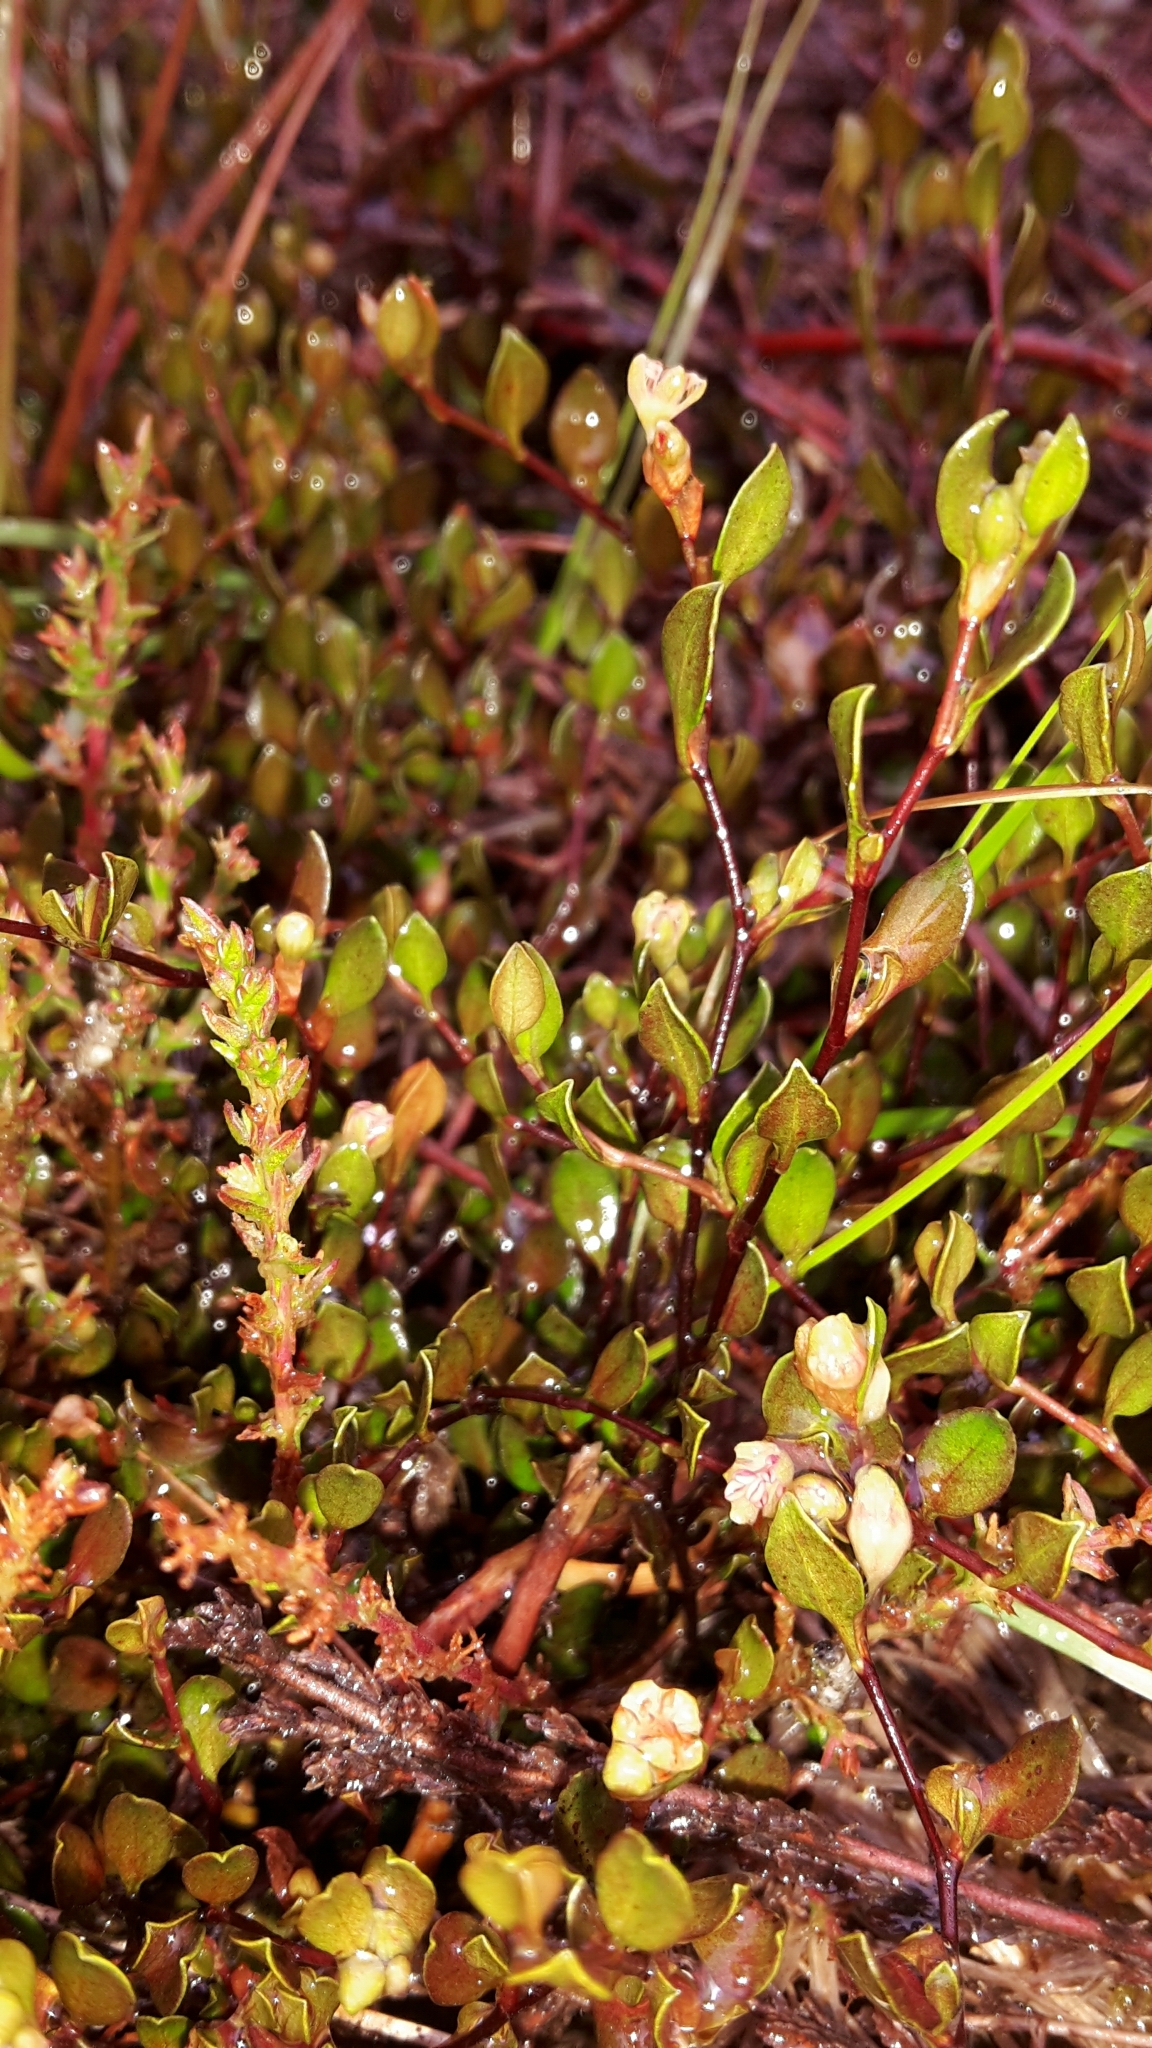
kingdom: Plantae
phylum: Tracheophyta
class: Magnoliopsida
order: Caryophyllales
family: Polygonaceae
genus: Muehlenbeckia
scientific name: Muehlenbeckia axillaris
